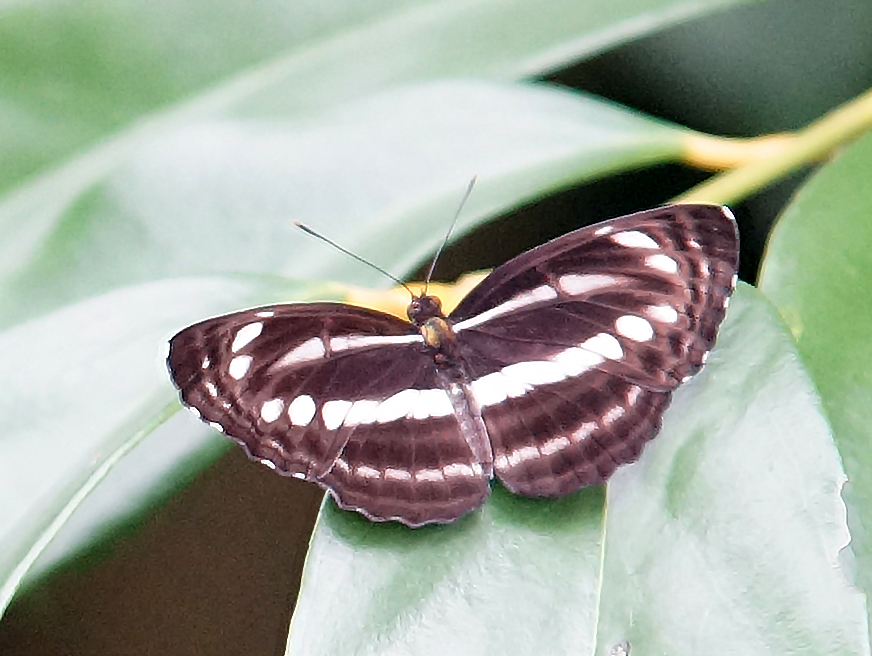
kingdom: Animalia
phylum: Arthropoda
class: Insecta
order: Lepidoptera
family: Nymphalidae
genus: Neptis
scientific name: Neptis cartica
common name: Plain sailer
